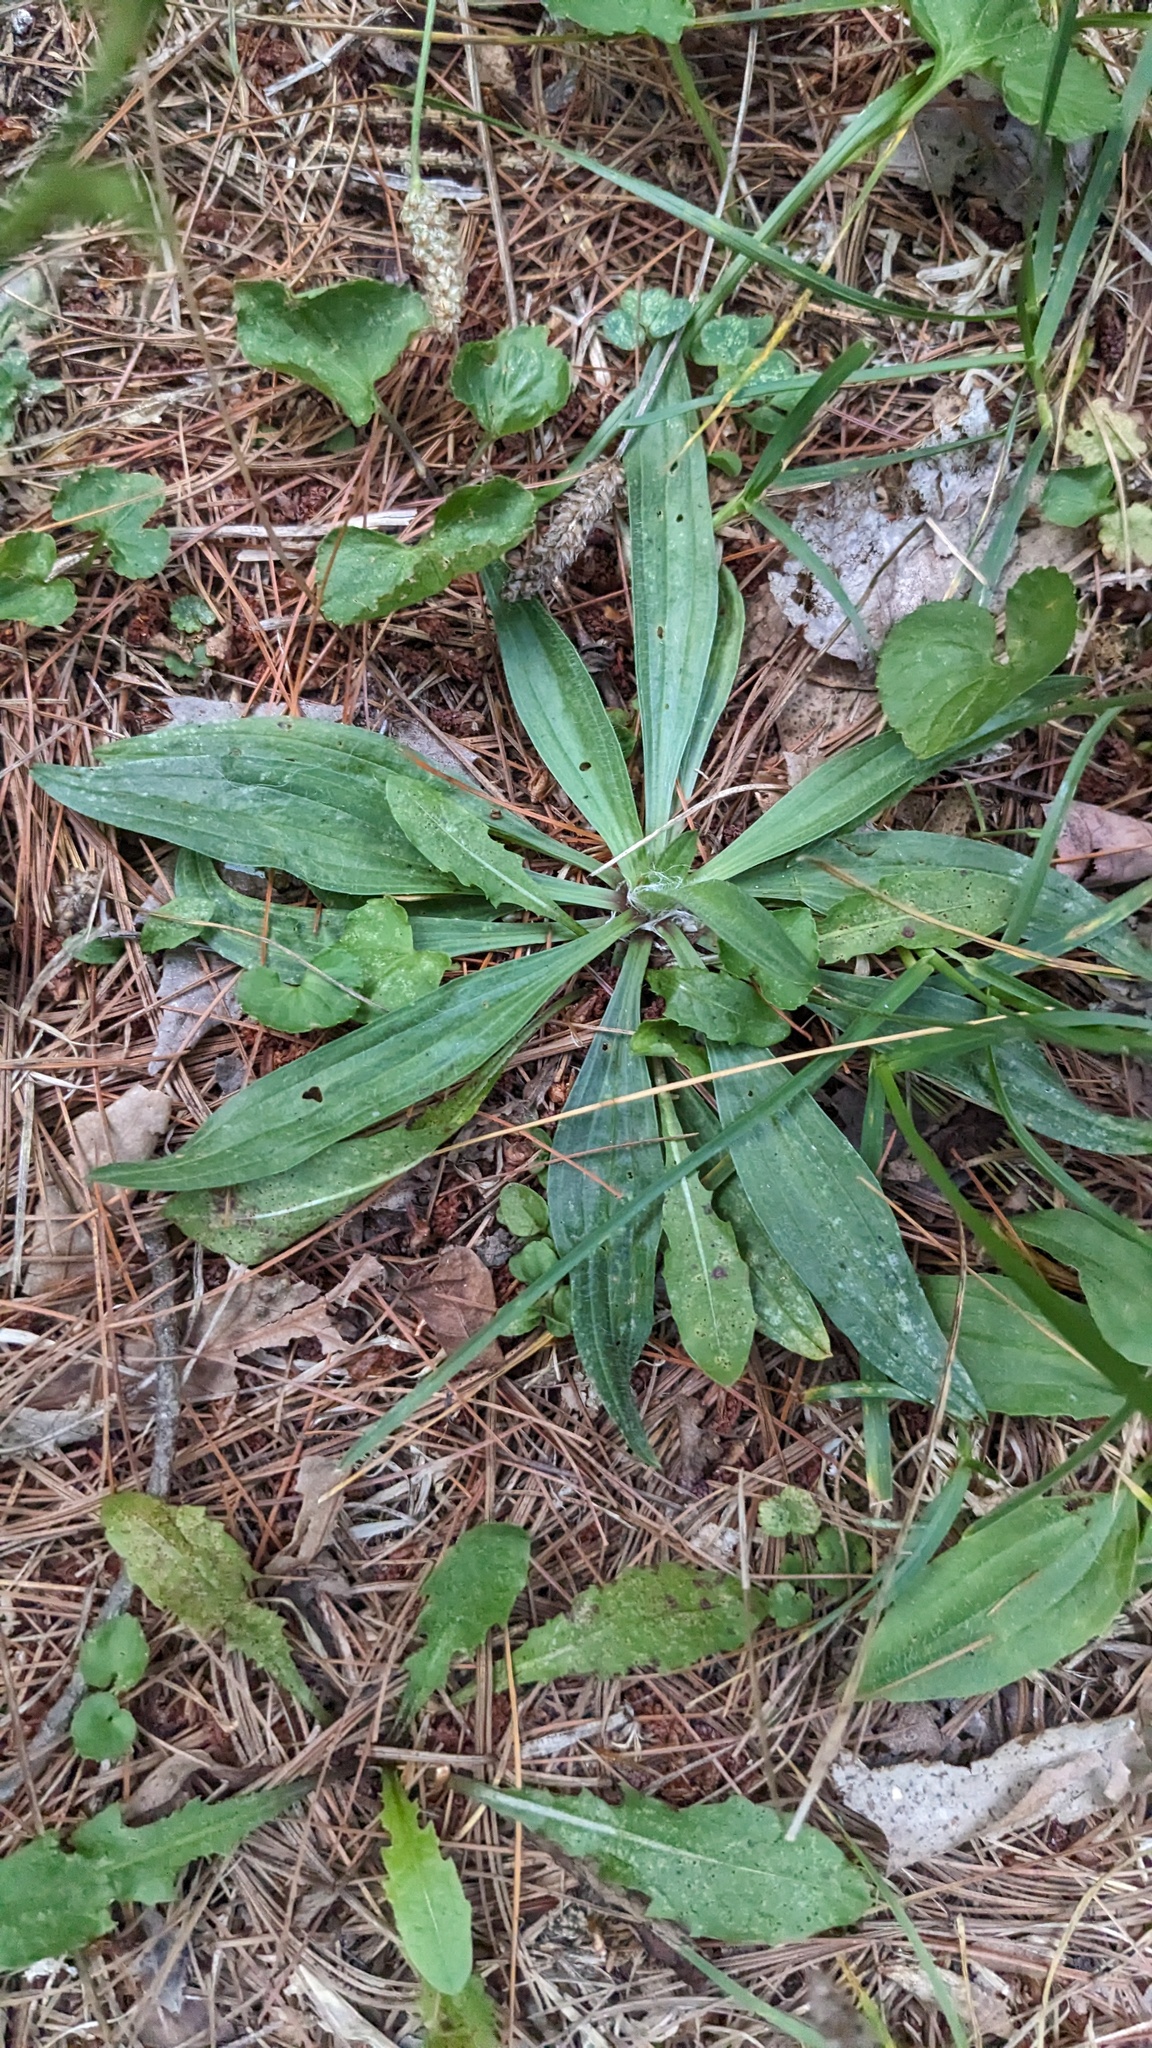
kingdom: Plantae
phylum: Tracheophyta
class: Magnoliopsida
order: Lamiales
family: Plantaginaceae
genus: Plantago
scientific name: Plantago lanceolata
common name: Ribwort plantain
